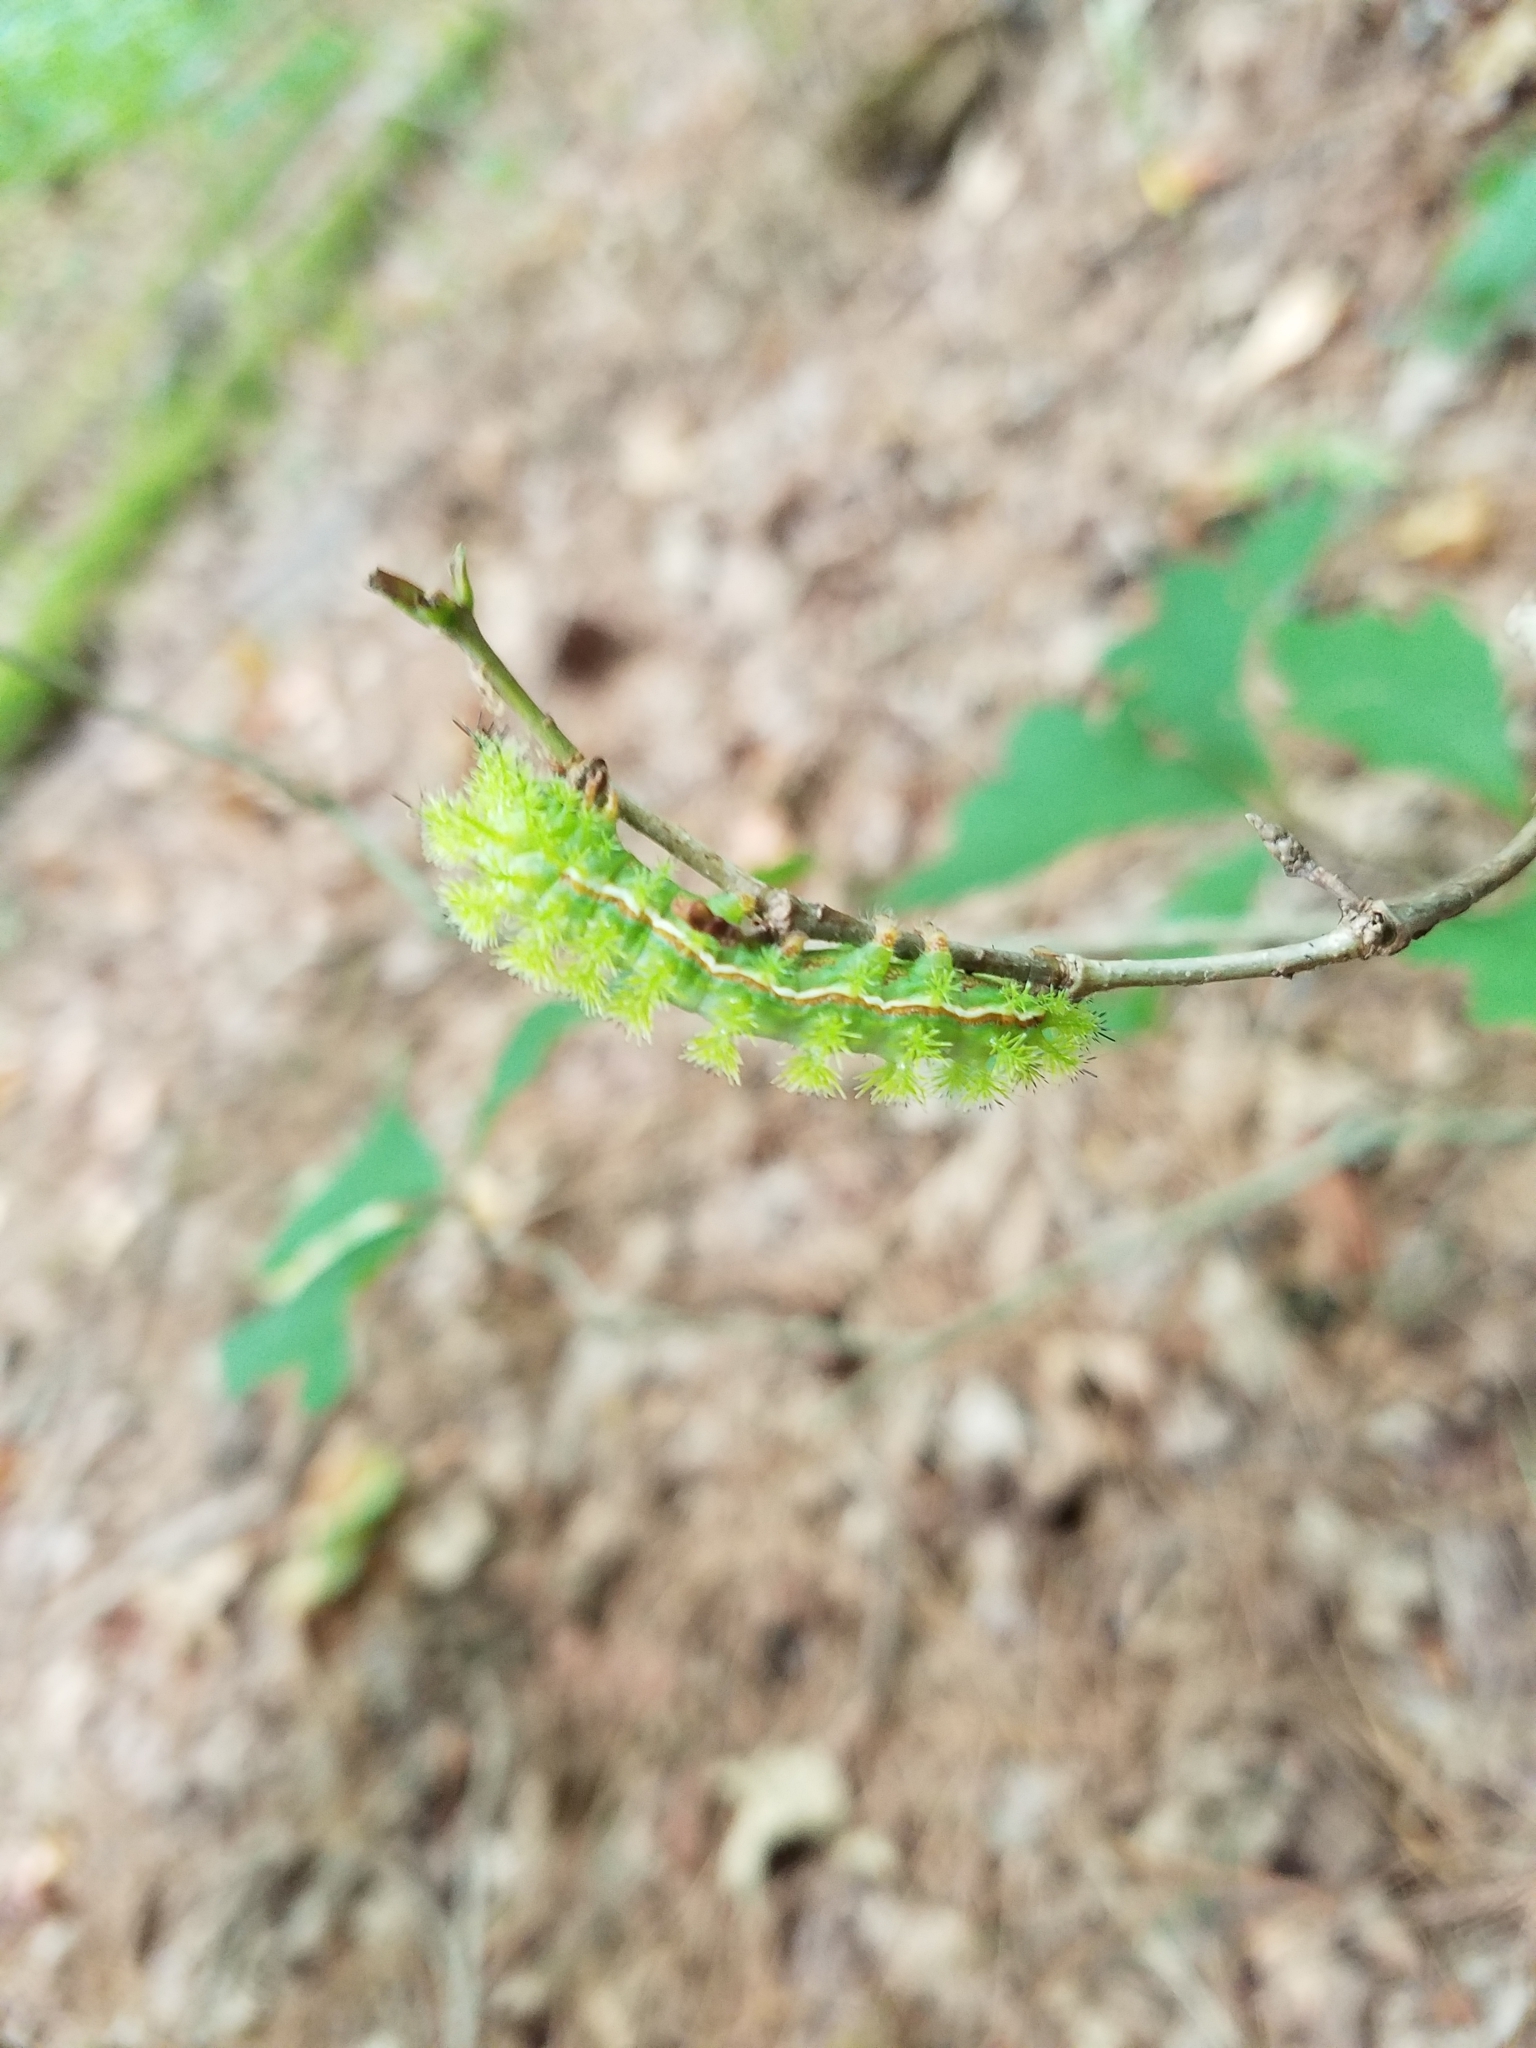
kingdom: Animalia
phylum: Arthropoda
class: Insecta
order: Lepidoptera
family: Saturniidae
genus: Automeris
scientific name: Automeris io
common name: Io moth
